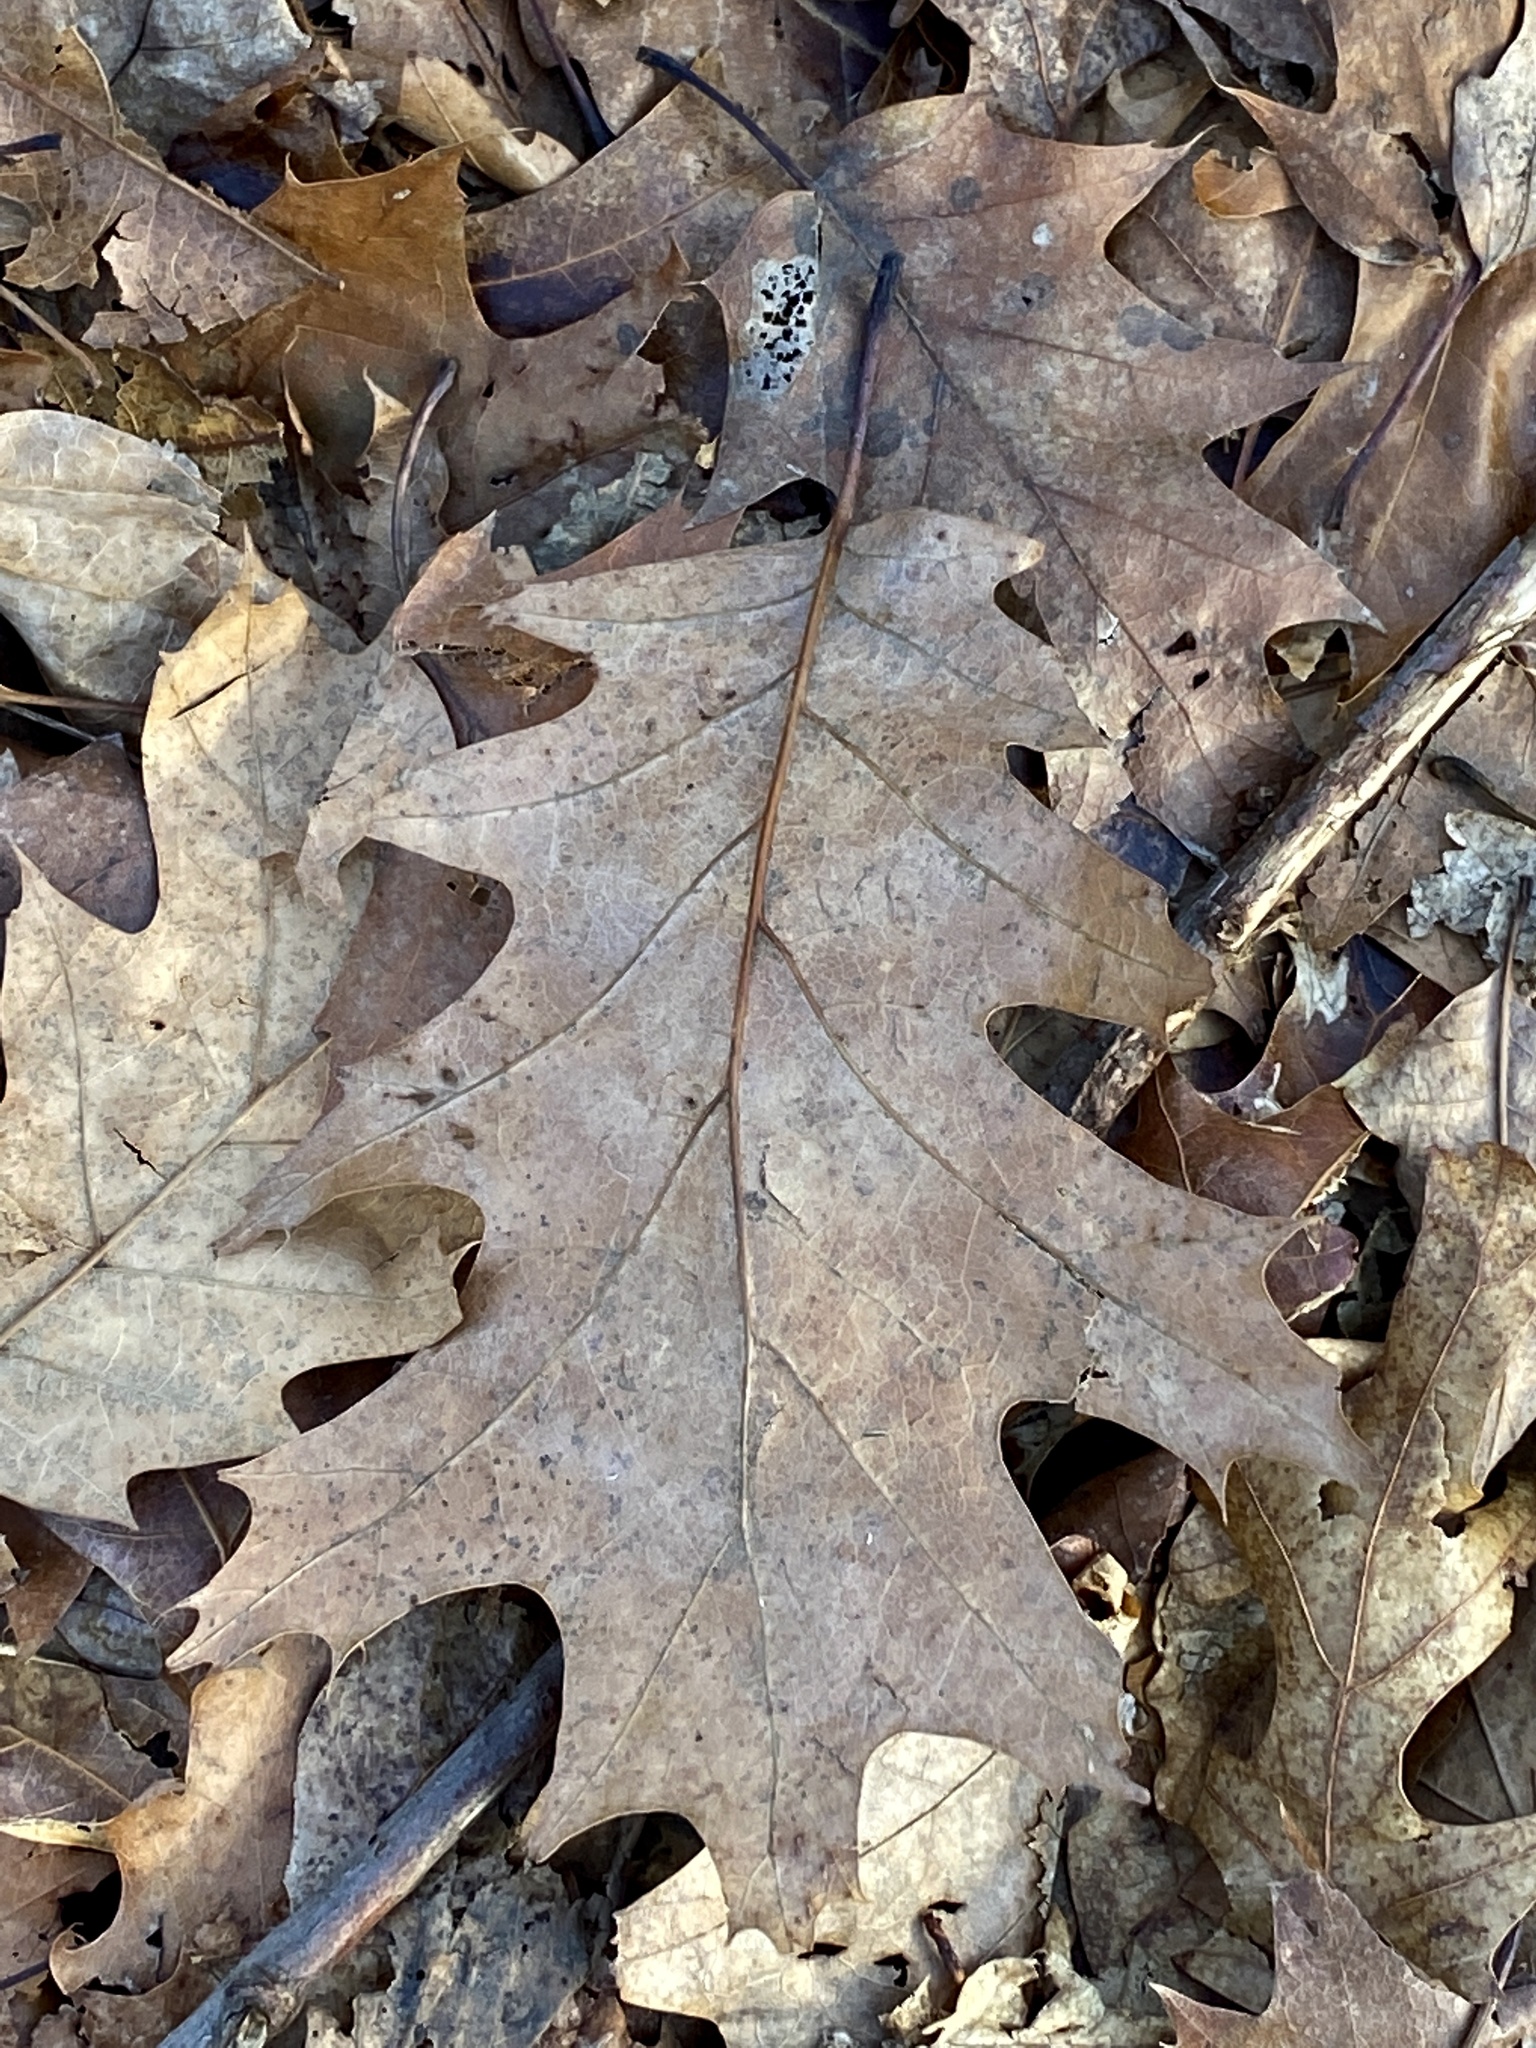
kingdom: Plantae
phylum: Tracheophyta
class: Magnoliopsida
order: Fagales
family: Fagaceae
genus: Quercus
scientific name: Quercus rubra
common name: Red oak
